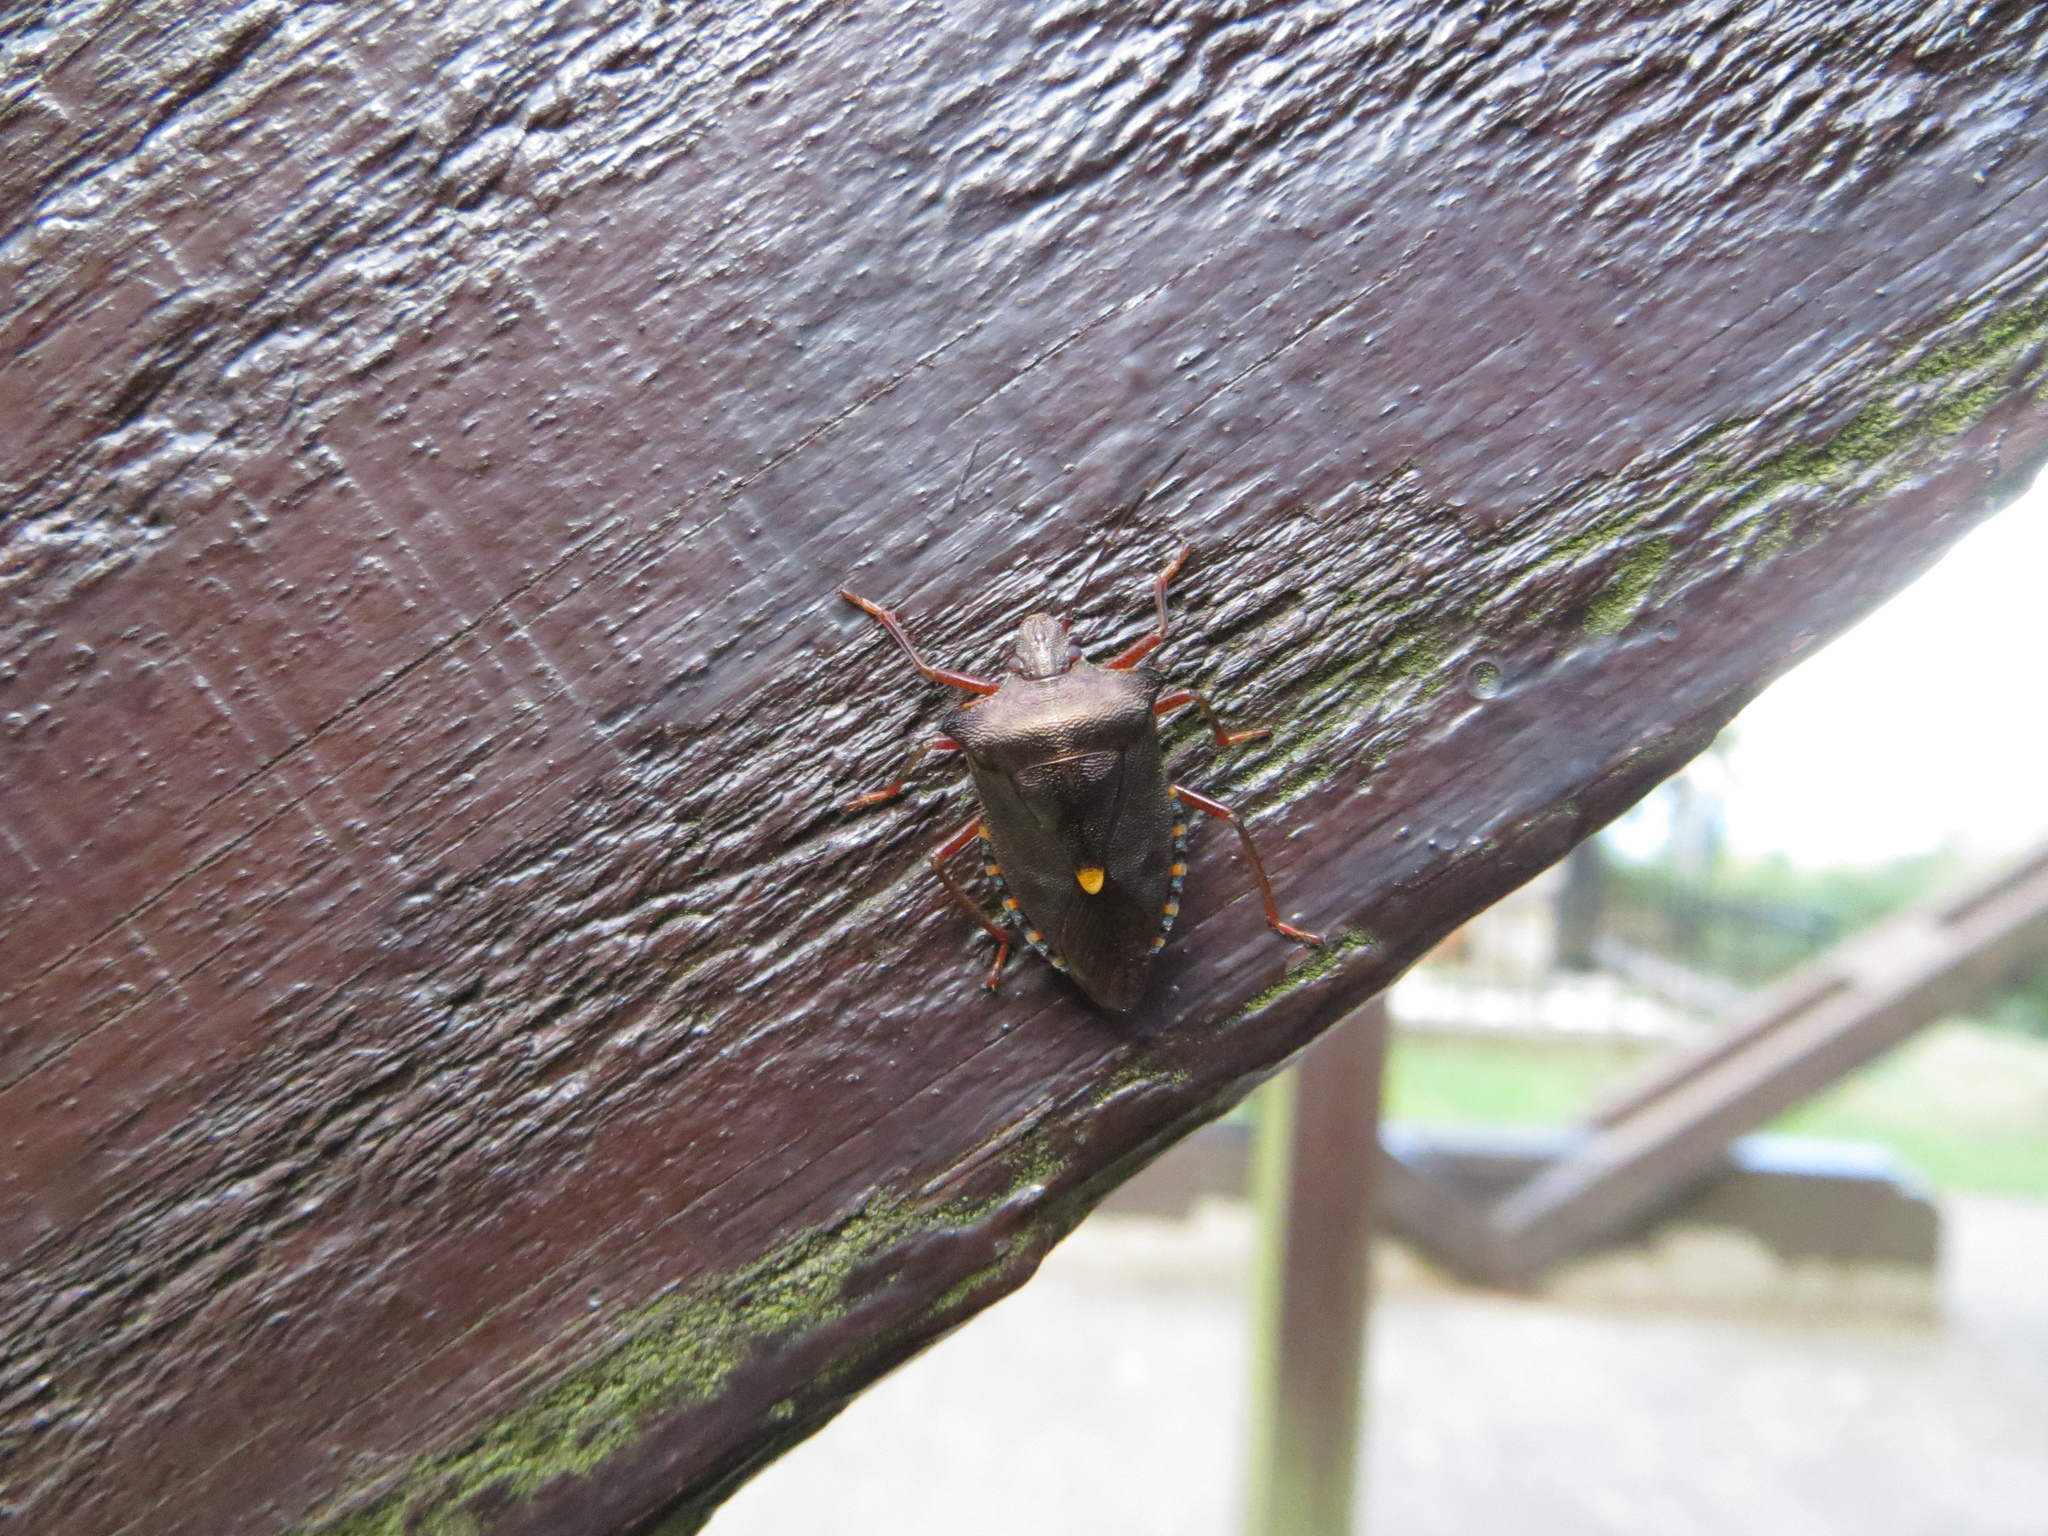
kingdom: Animalia
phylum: Arthropoda
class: Insecta
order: Hemiptera
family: Pentatomidae
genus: Pentatoma
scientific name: Pentatoma rufipes
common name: Forest bug
